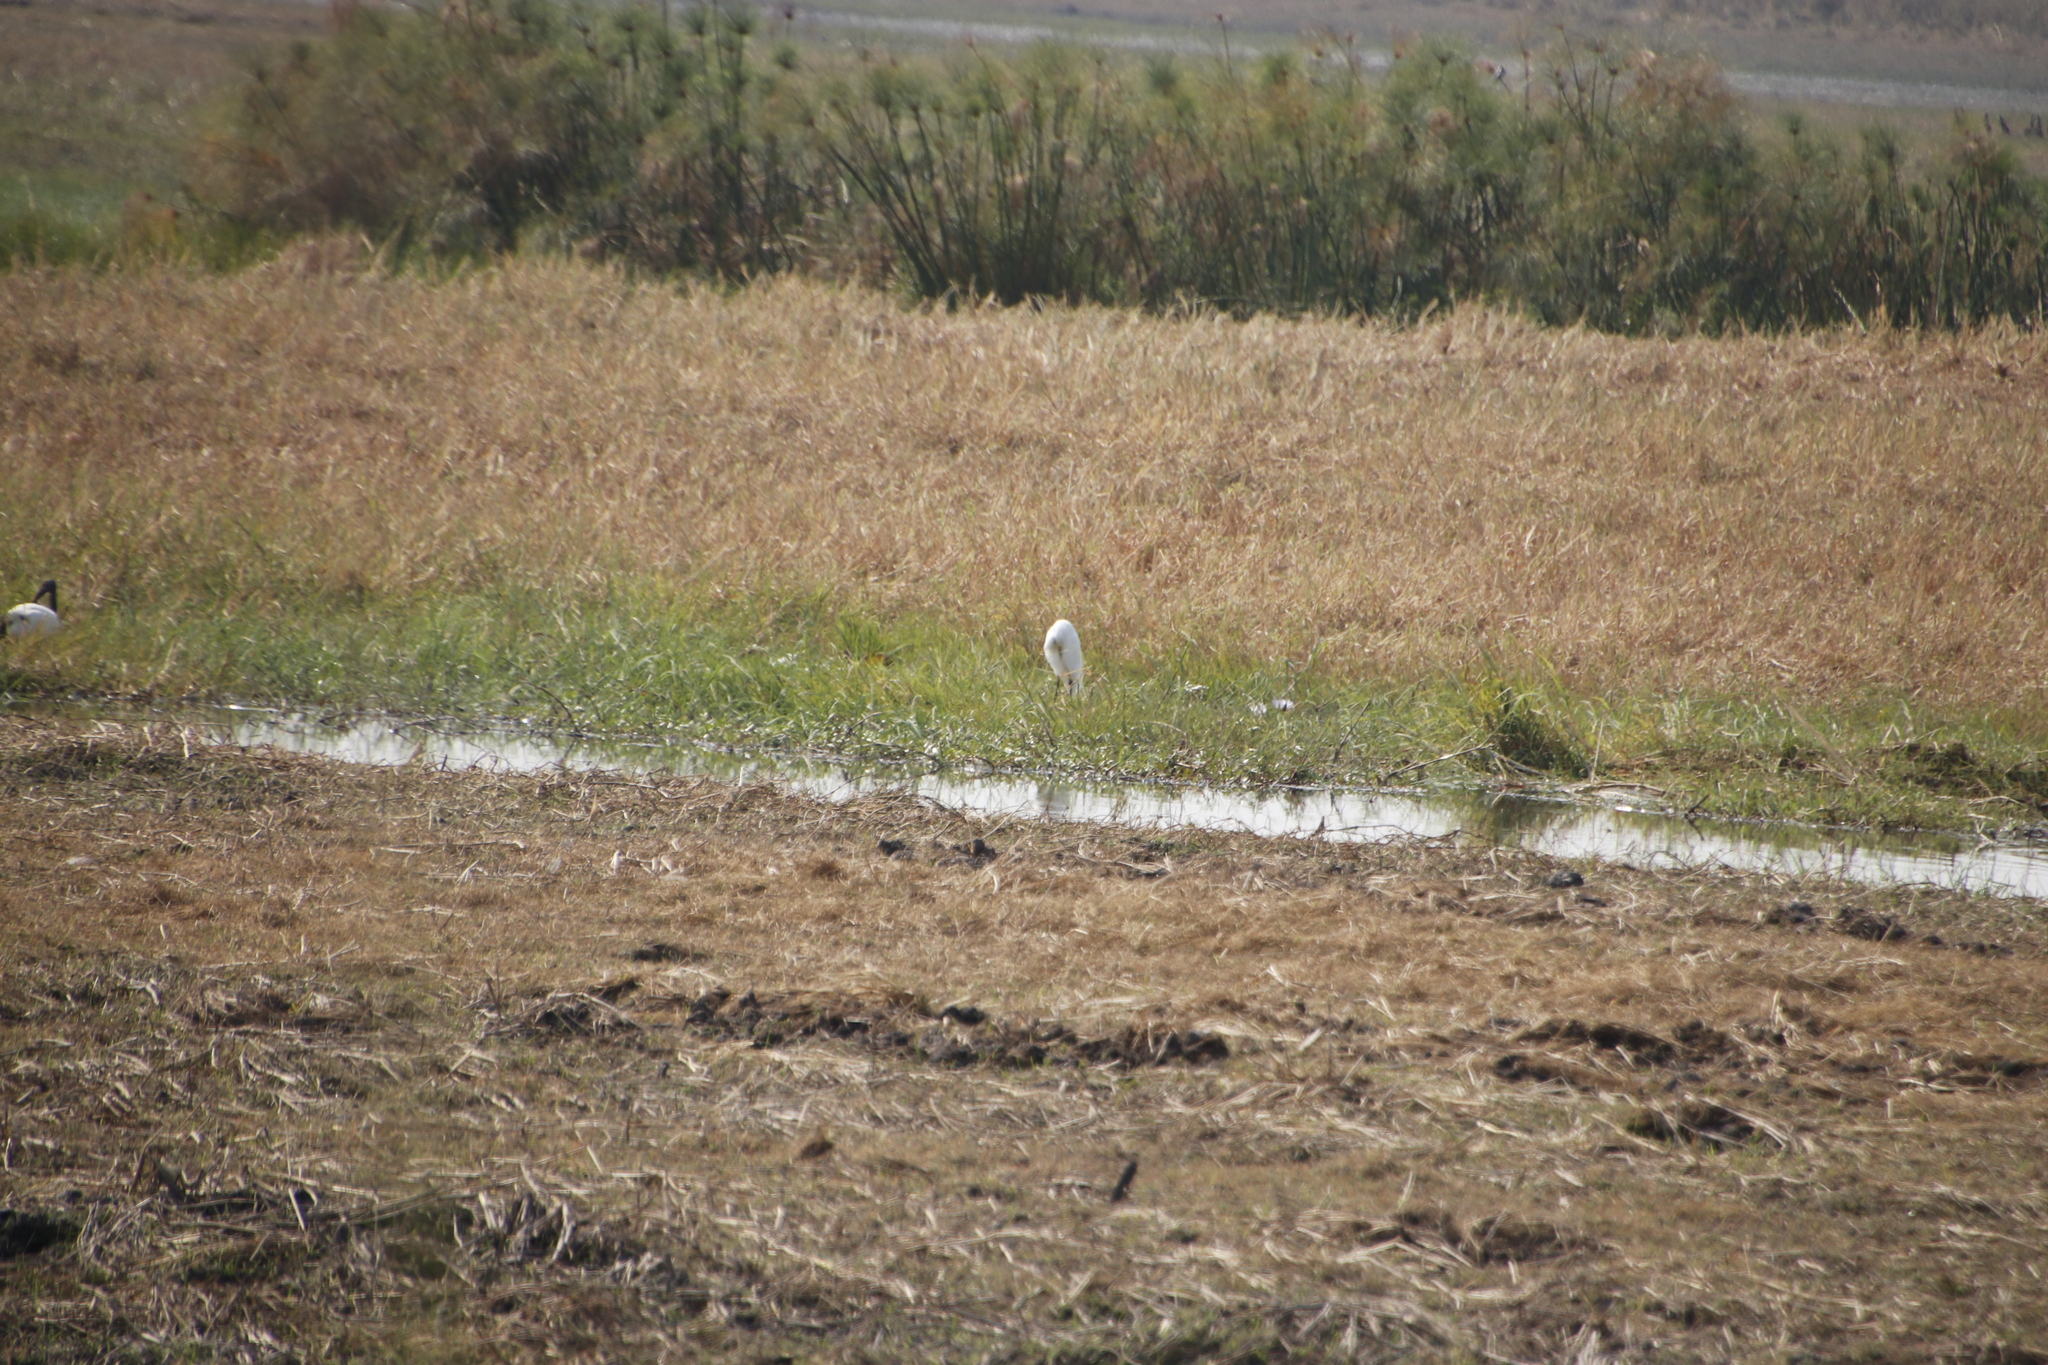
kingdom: Animalia
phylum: Chordata
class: Aves
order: Pelecaniformes
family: Ardeidae
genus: Ardea
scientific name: Ardea alba
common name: Great egret
